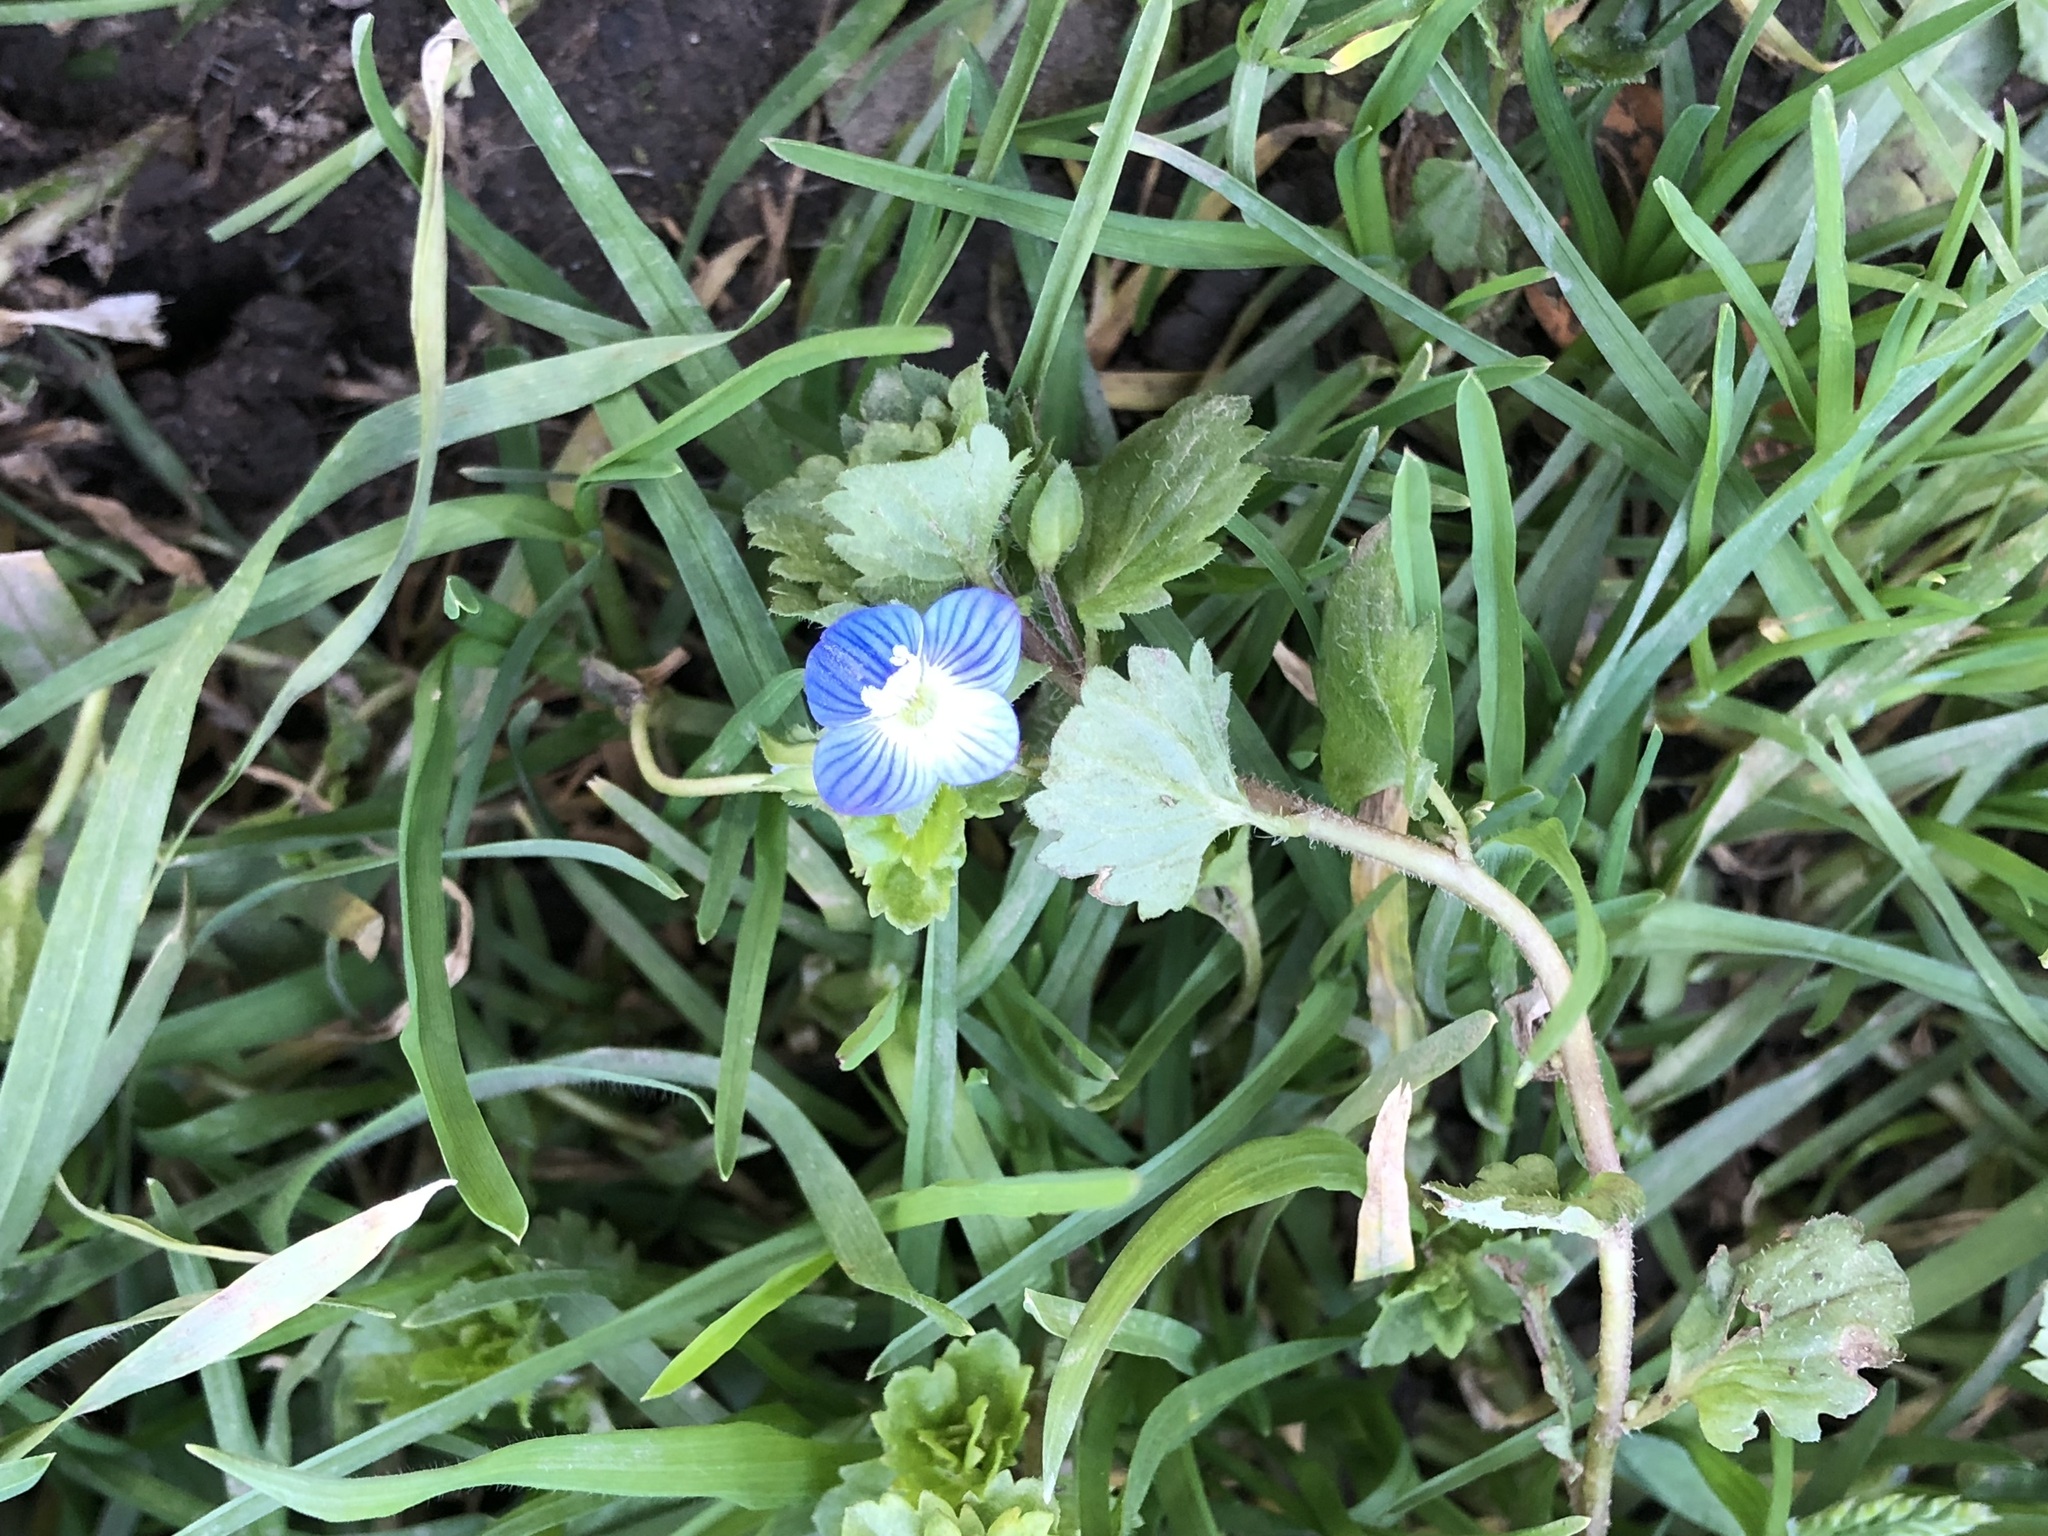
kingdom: Plantae
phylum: Tracheophyta
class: Magnoliopsida
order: Lamiales
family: Plantaginaceae
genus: Veronica
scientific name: Veronica persica
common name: Common field-speedwell
